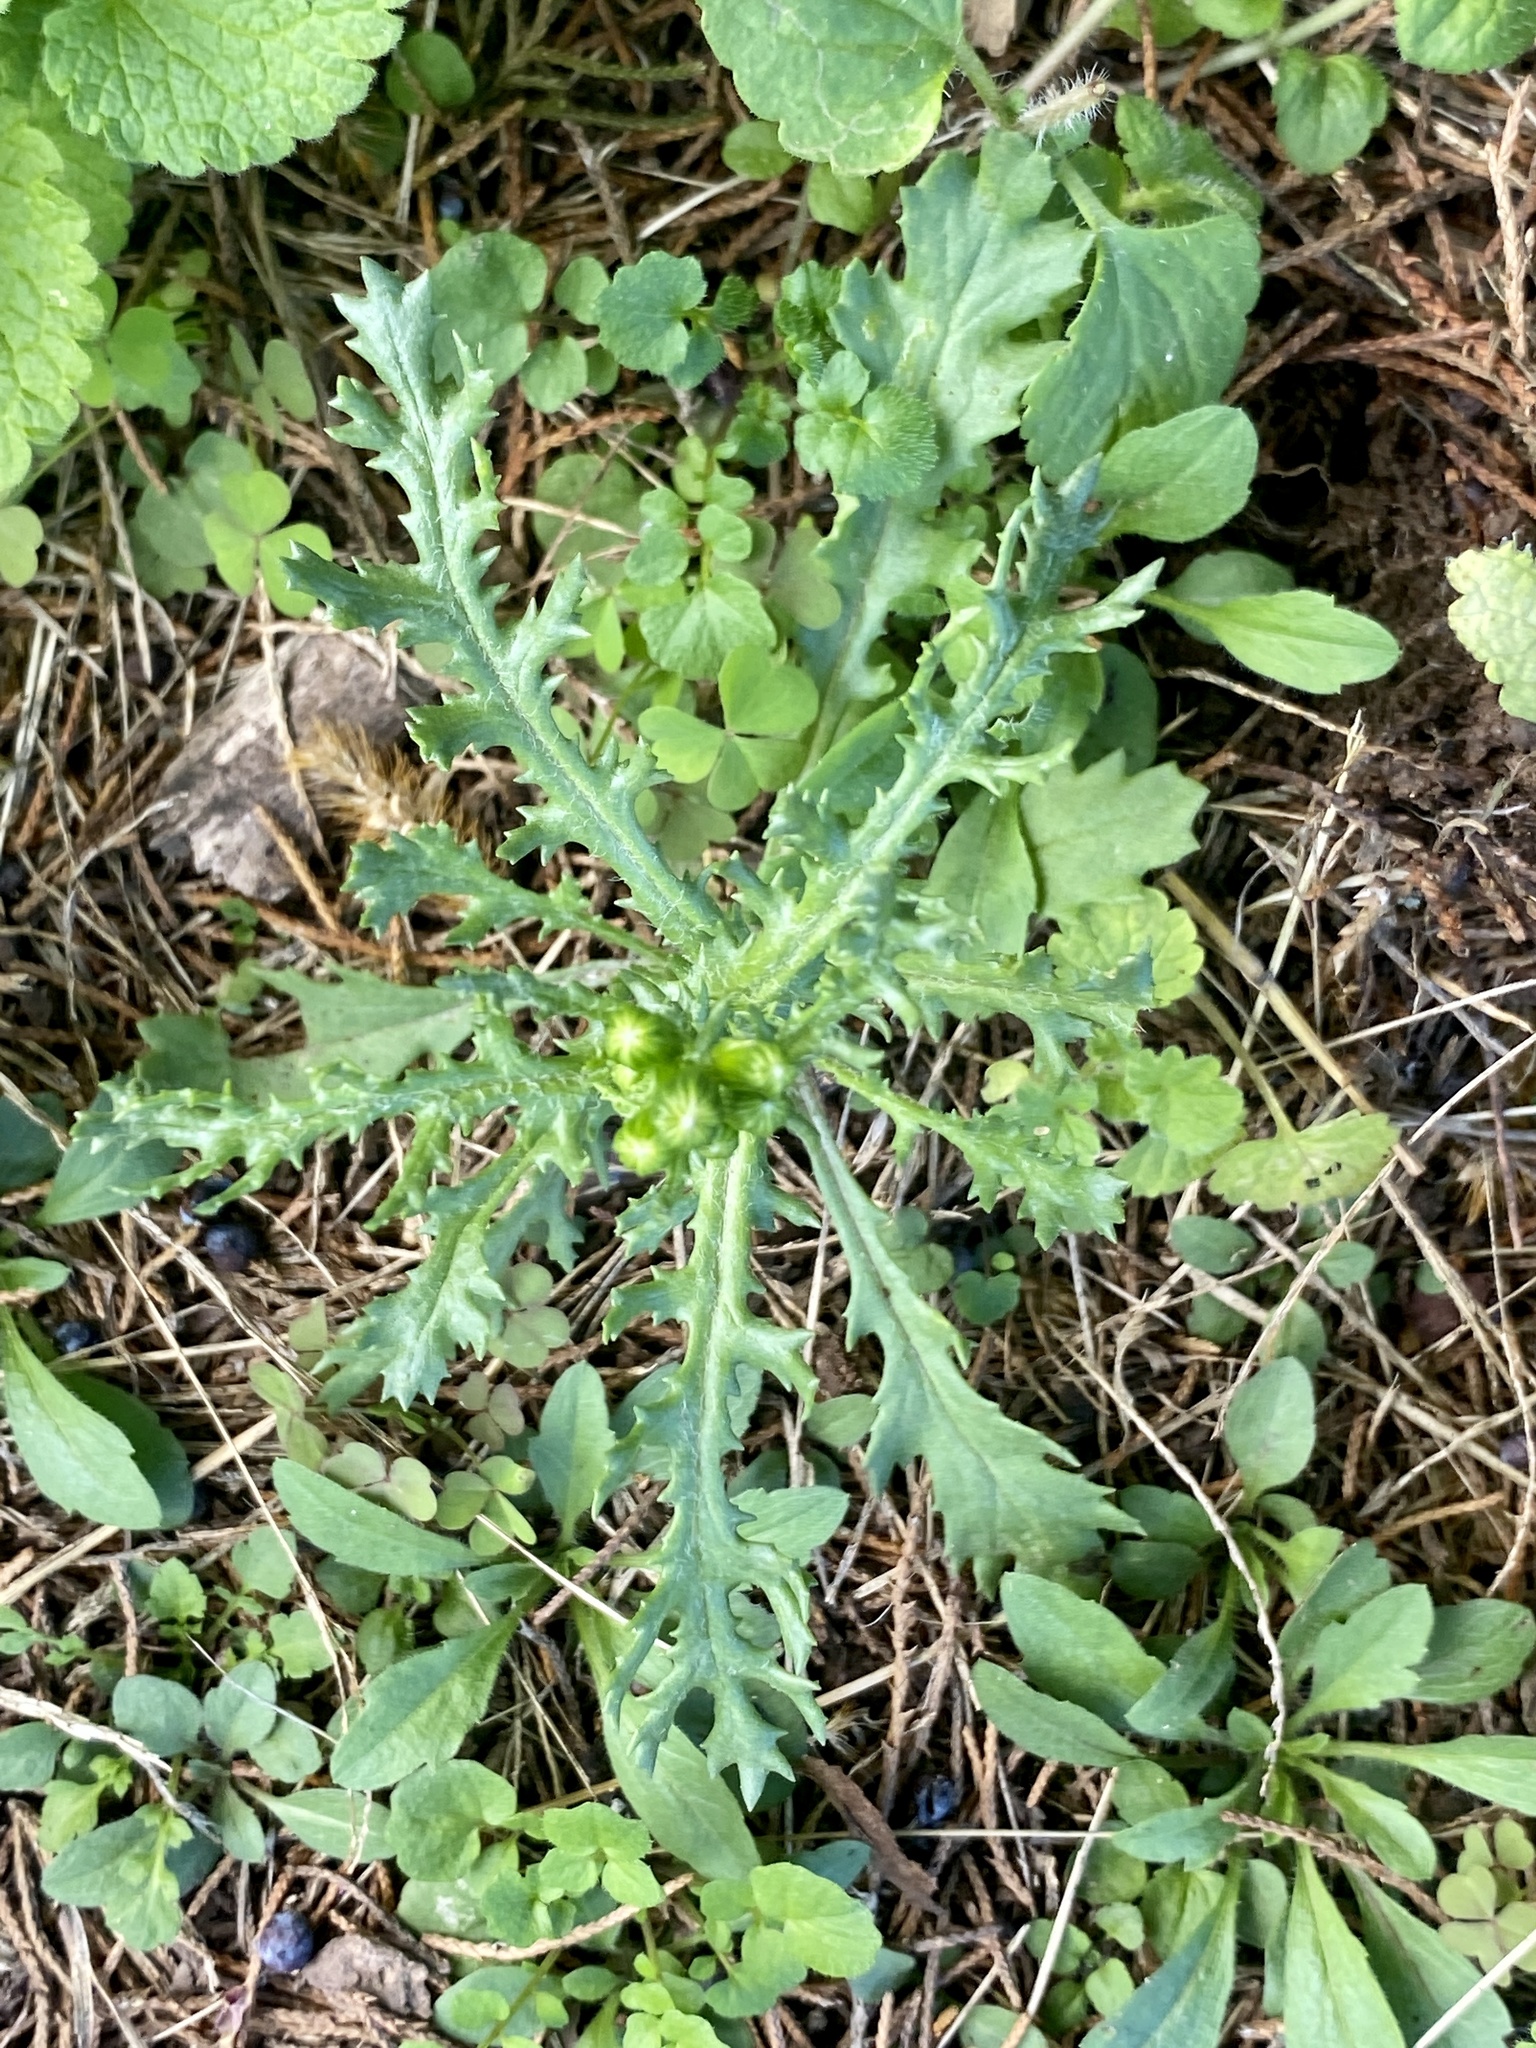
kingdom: Plantae
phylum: Tracheophyta
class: Magnoliopsida
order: Asterales
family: Asteraceae
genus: Senecio
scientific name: Senecio vulgaris
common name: Old-man-in-the-spring
